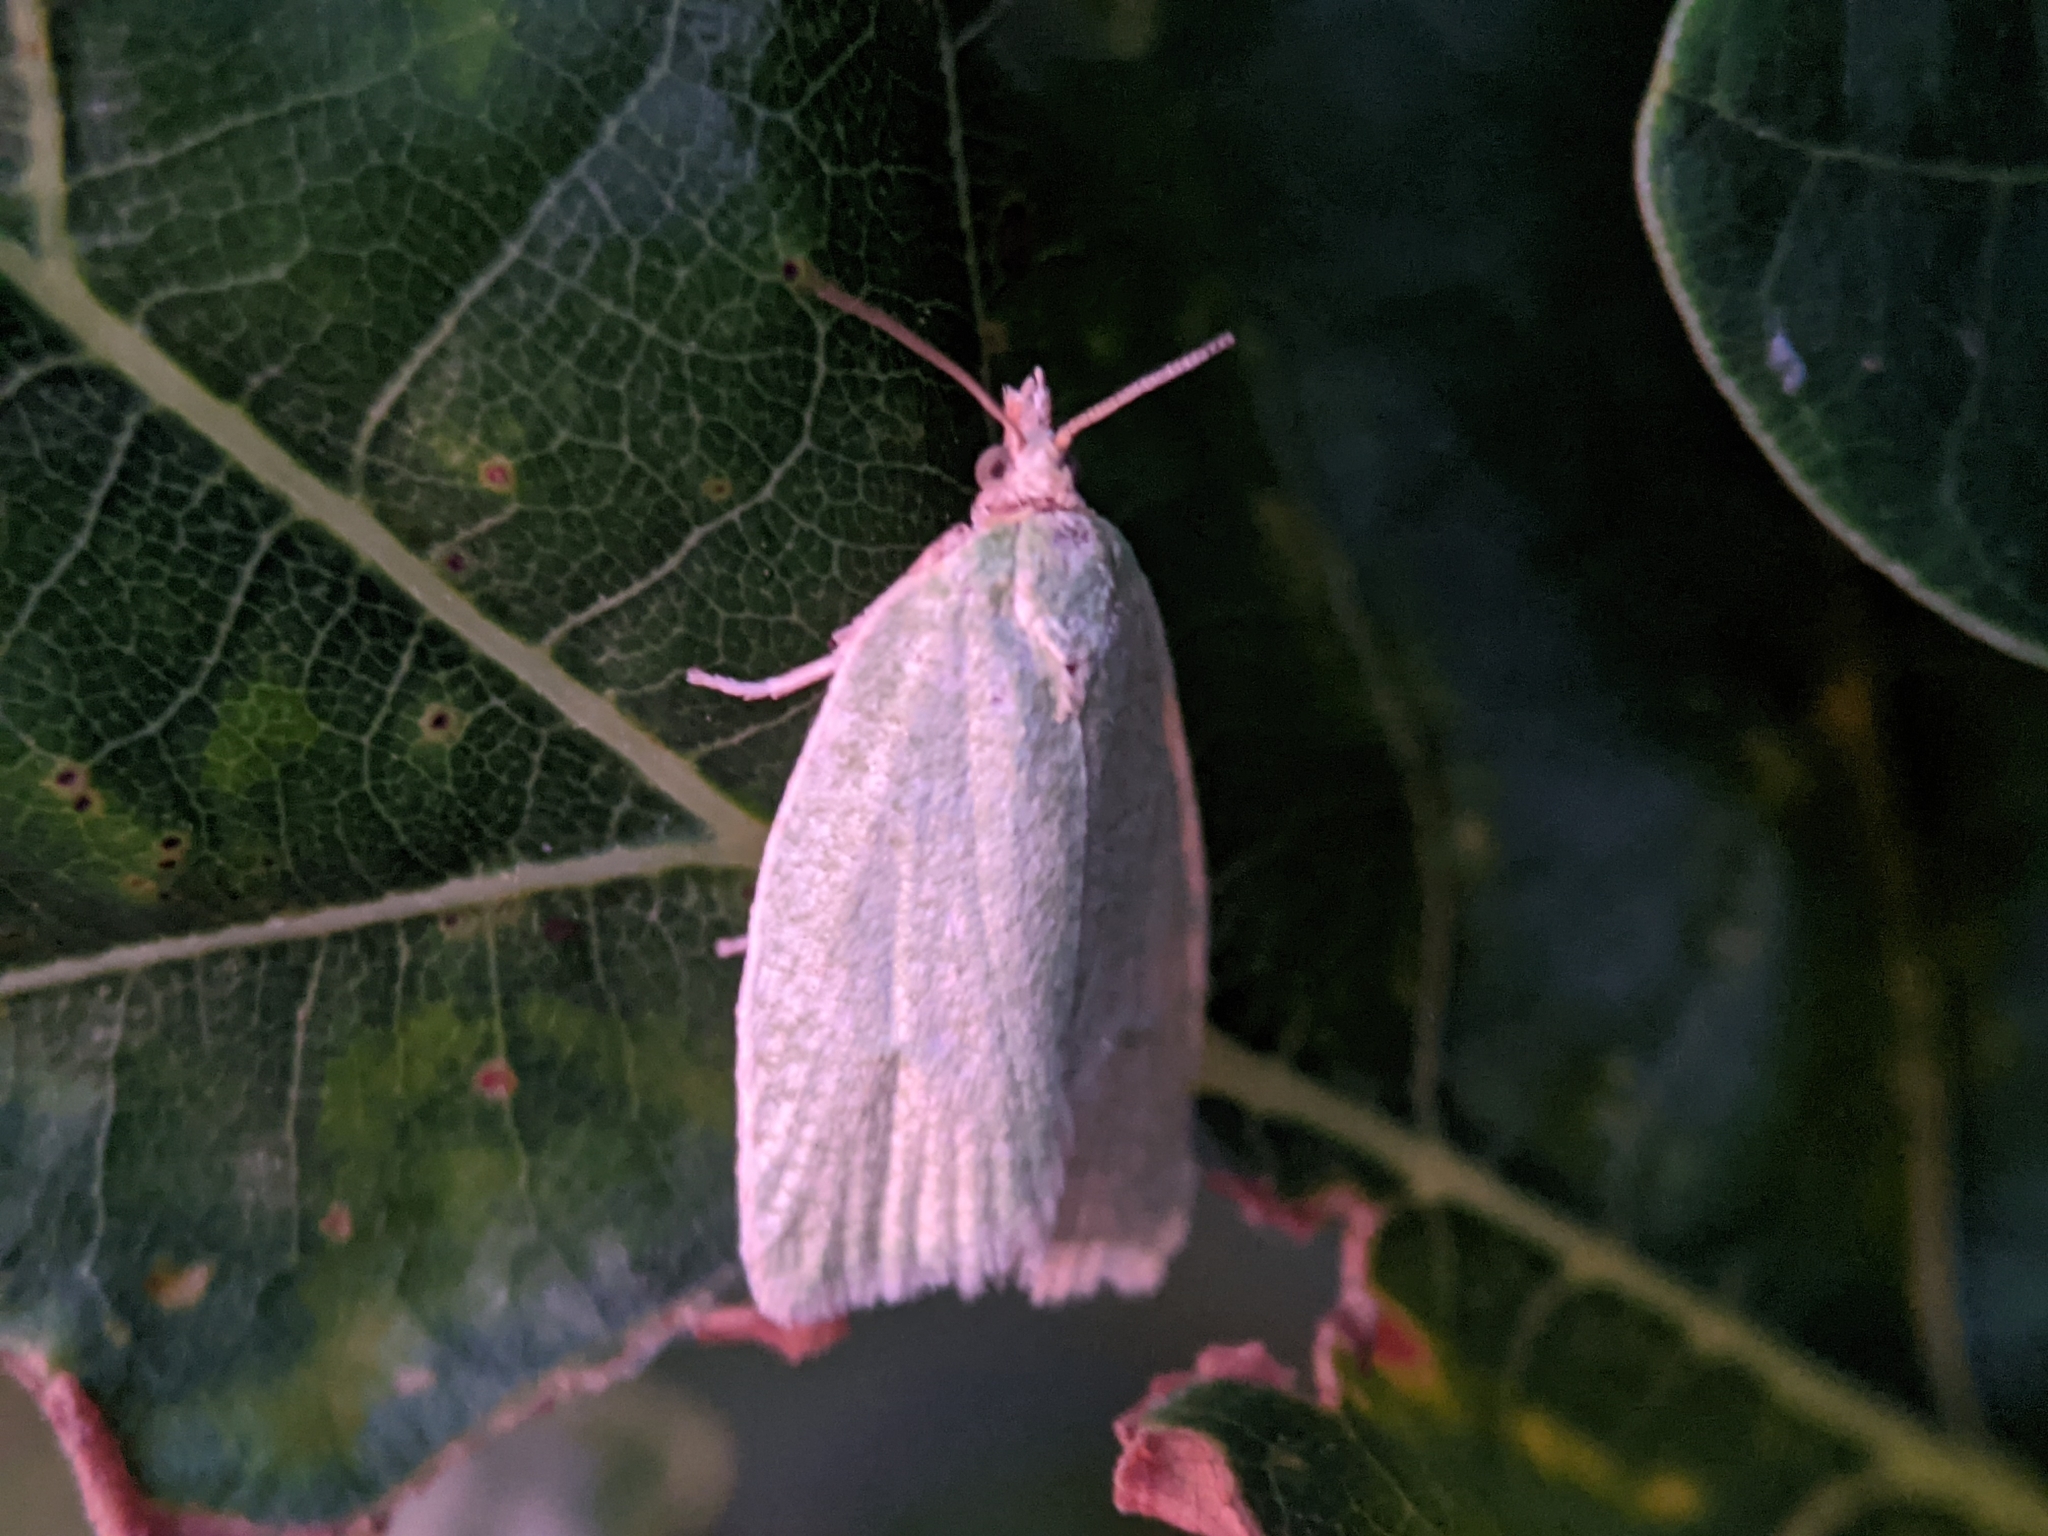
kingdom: Animalia
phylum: Arthropoda
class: Insecta
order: Lepidoptera
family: Tortricidae
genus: Tortrix
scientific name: Tortrix viridana
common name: Green oak tortrix
